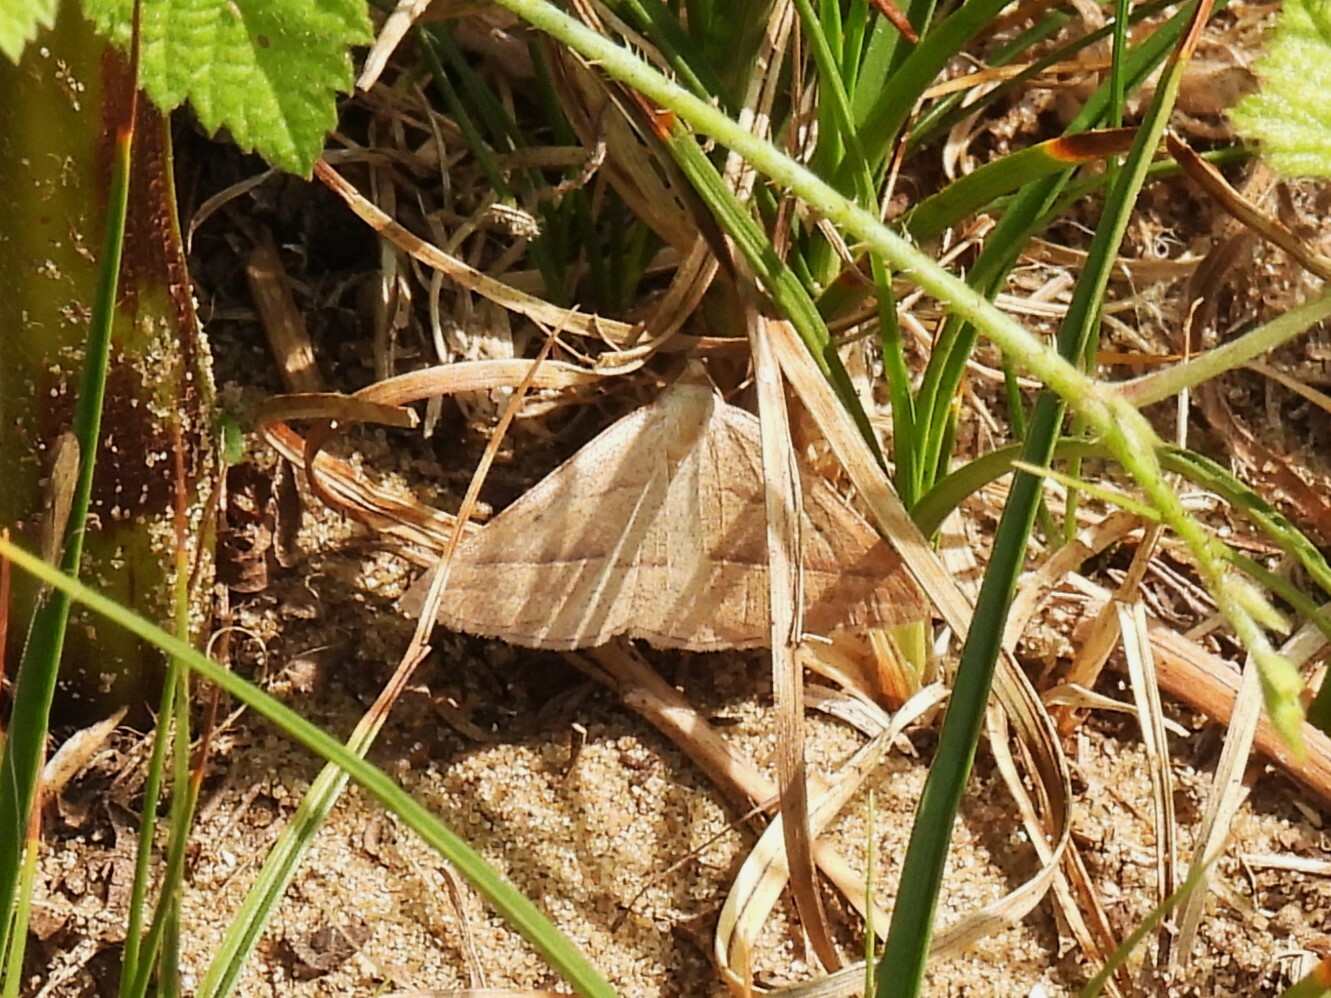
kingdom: Animalia
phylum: Arthropoda
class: Insecta
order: Lepidoptera
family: Pterophoridae
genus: Pterophorus
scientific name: Pterophorus Petrophora chlorosata
